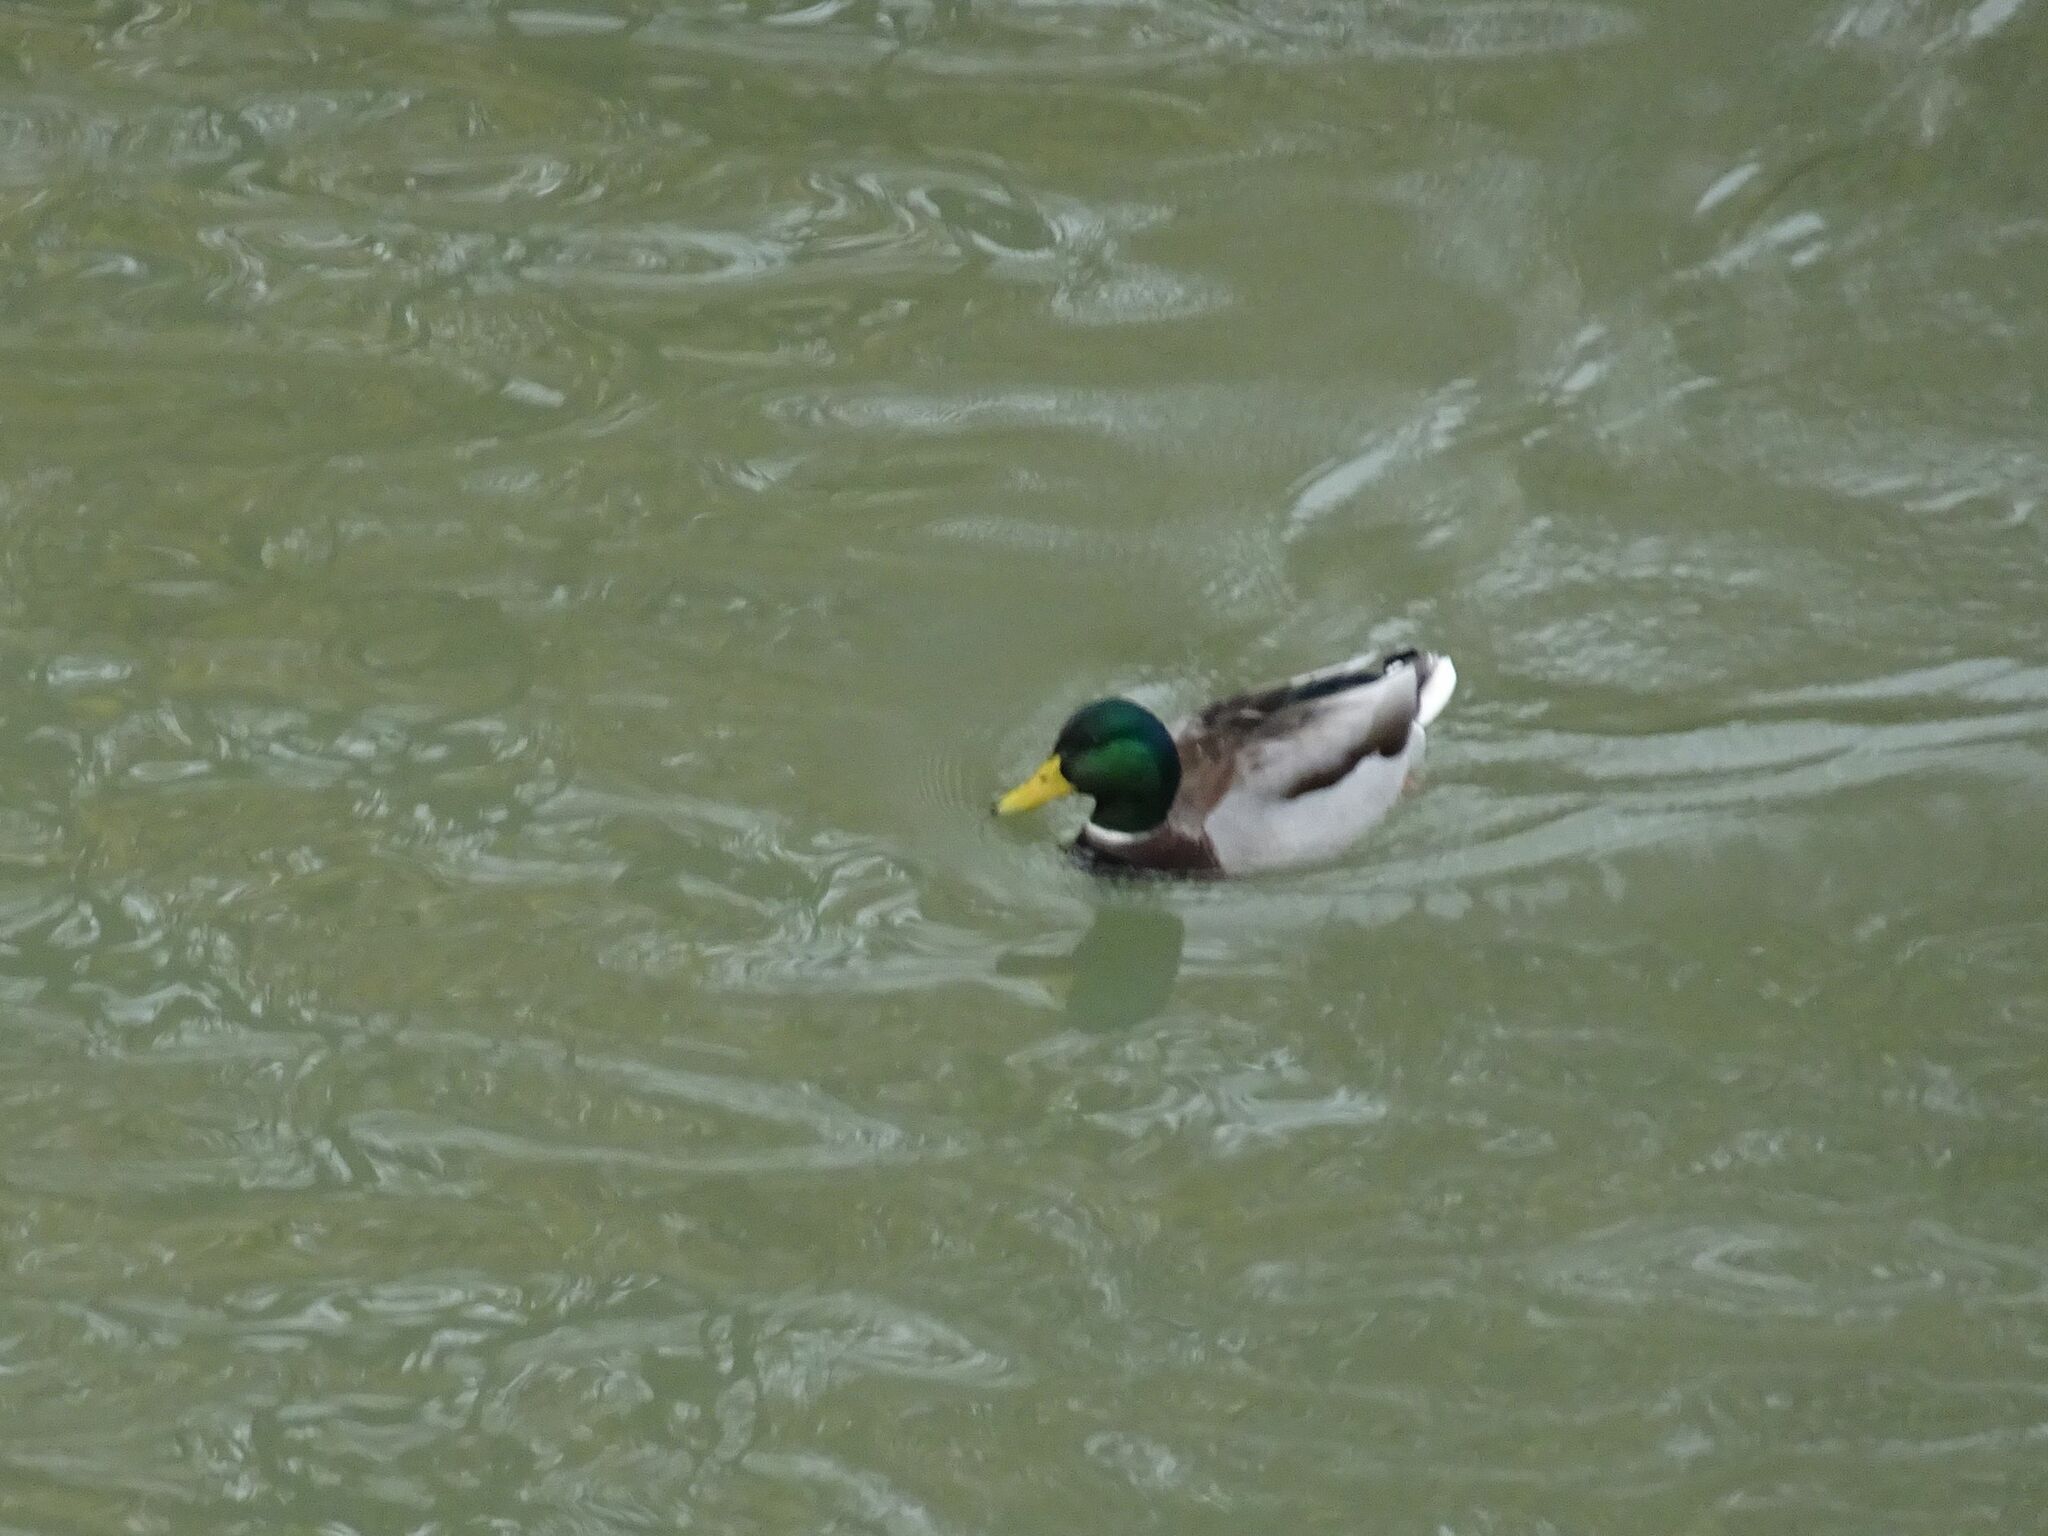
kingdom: Animalia
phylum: Chordata
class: Aves
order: Anseriformes
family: Anatidae
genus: Anas
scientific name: Anas platyrhynchos
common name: Mallard
